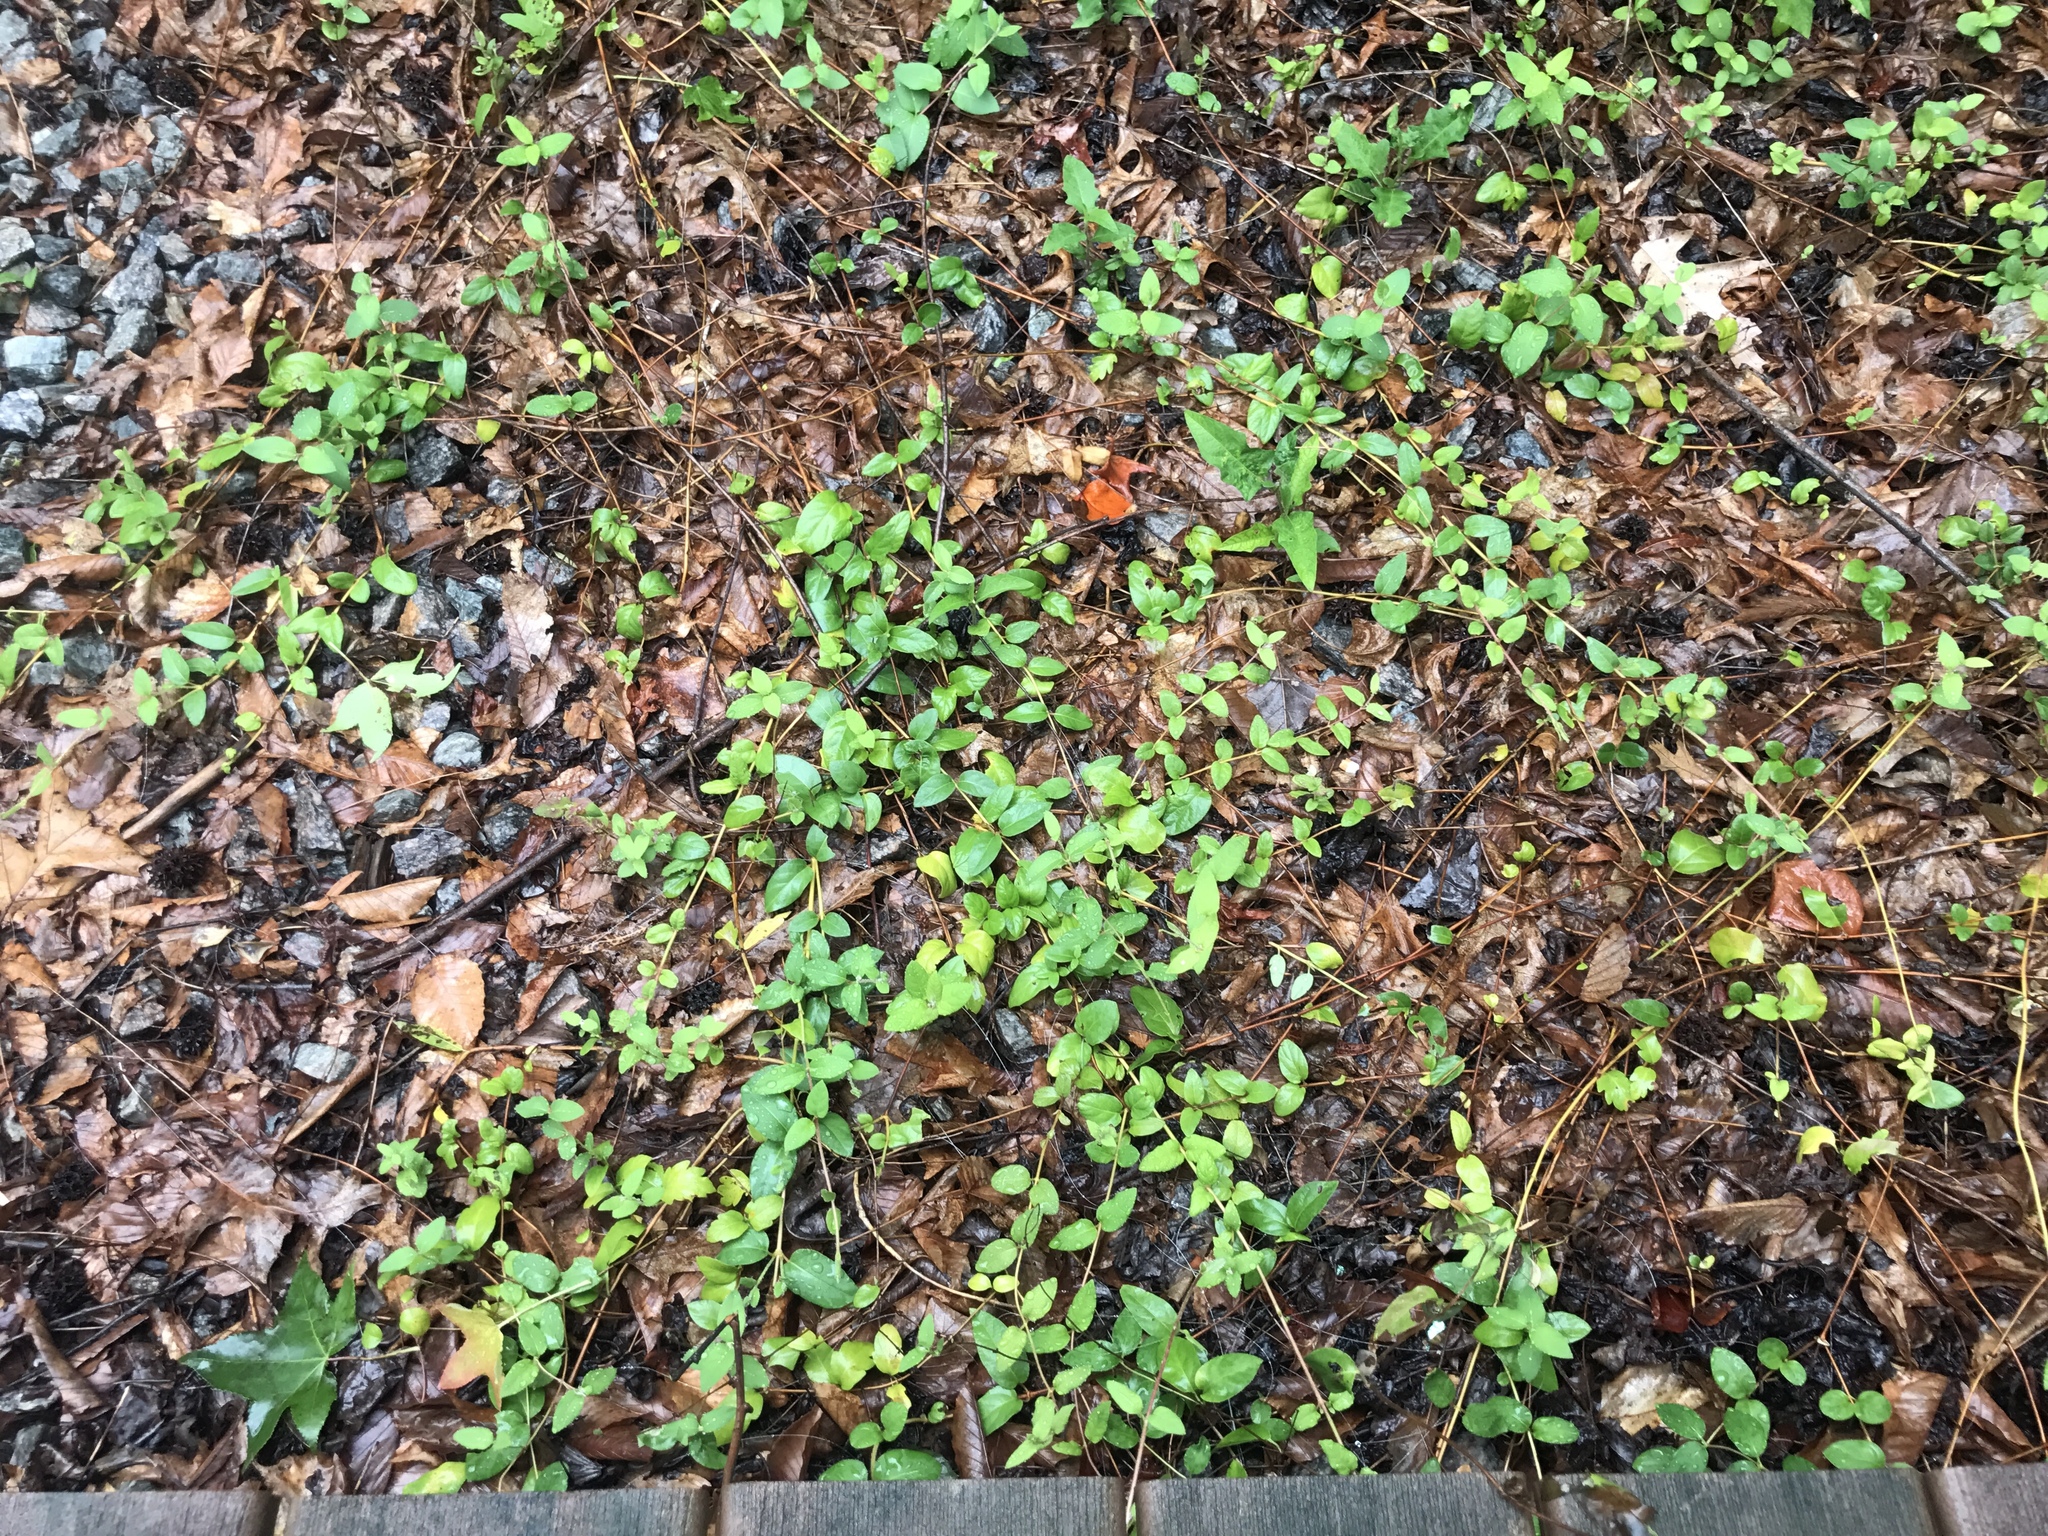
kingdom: Plantae
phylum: Tracheophyta
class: Magnoliopsida
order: Dipsacales
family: Caprifoliaceae
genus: Lonicera
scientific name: Lonicera japonica
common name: Japanese honeysuckle
